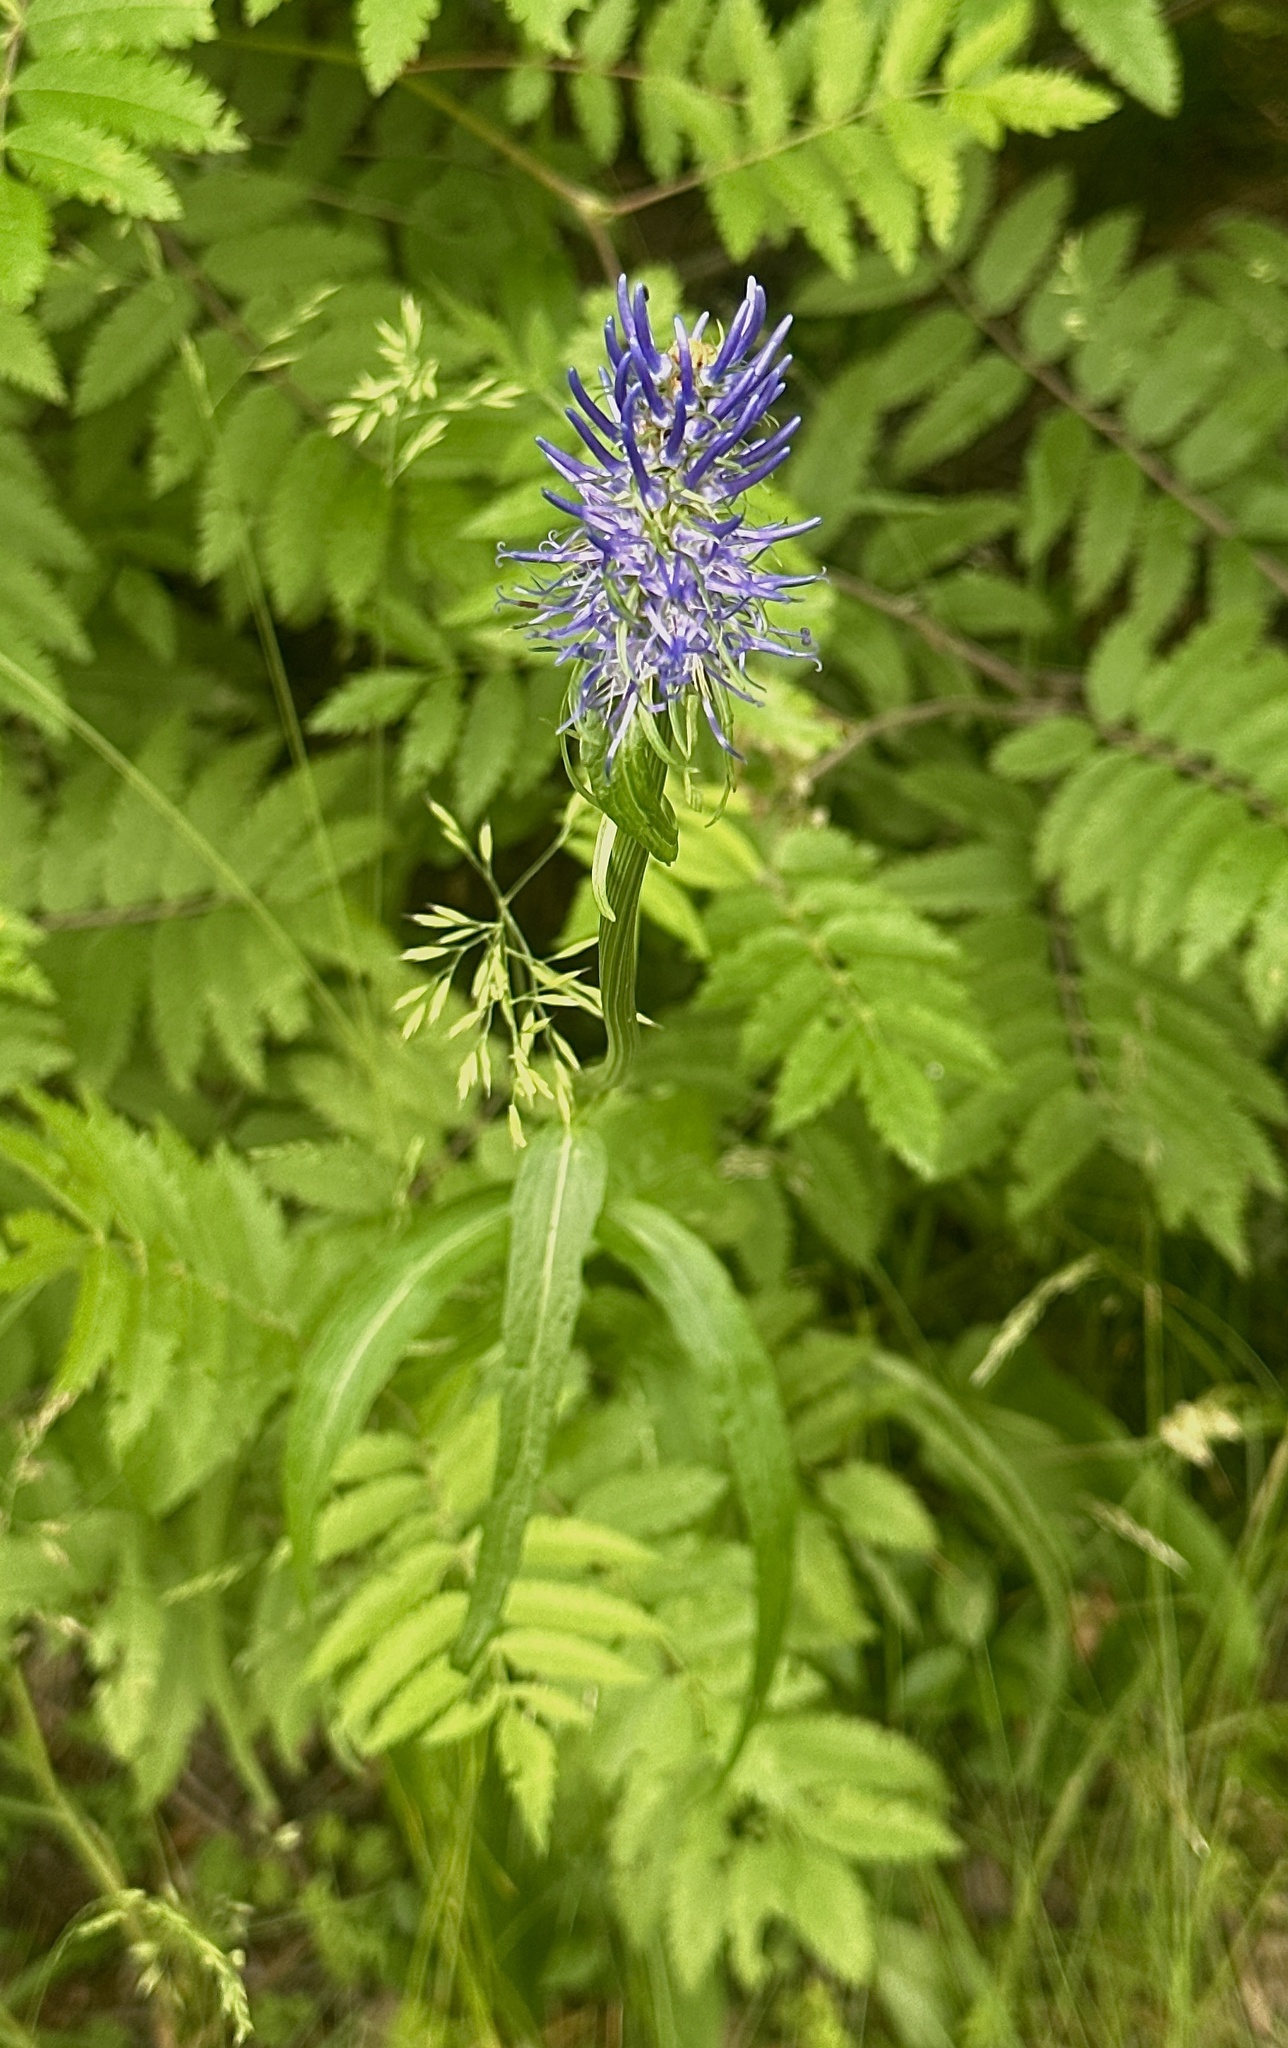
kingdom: Plantae
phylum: Tracheophyta
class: Magnoliopsida
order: Asterales
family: Campanulaceae
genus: Phyteuma
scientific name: Phyteuma persicifolium
